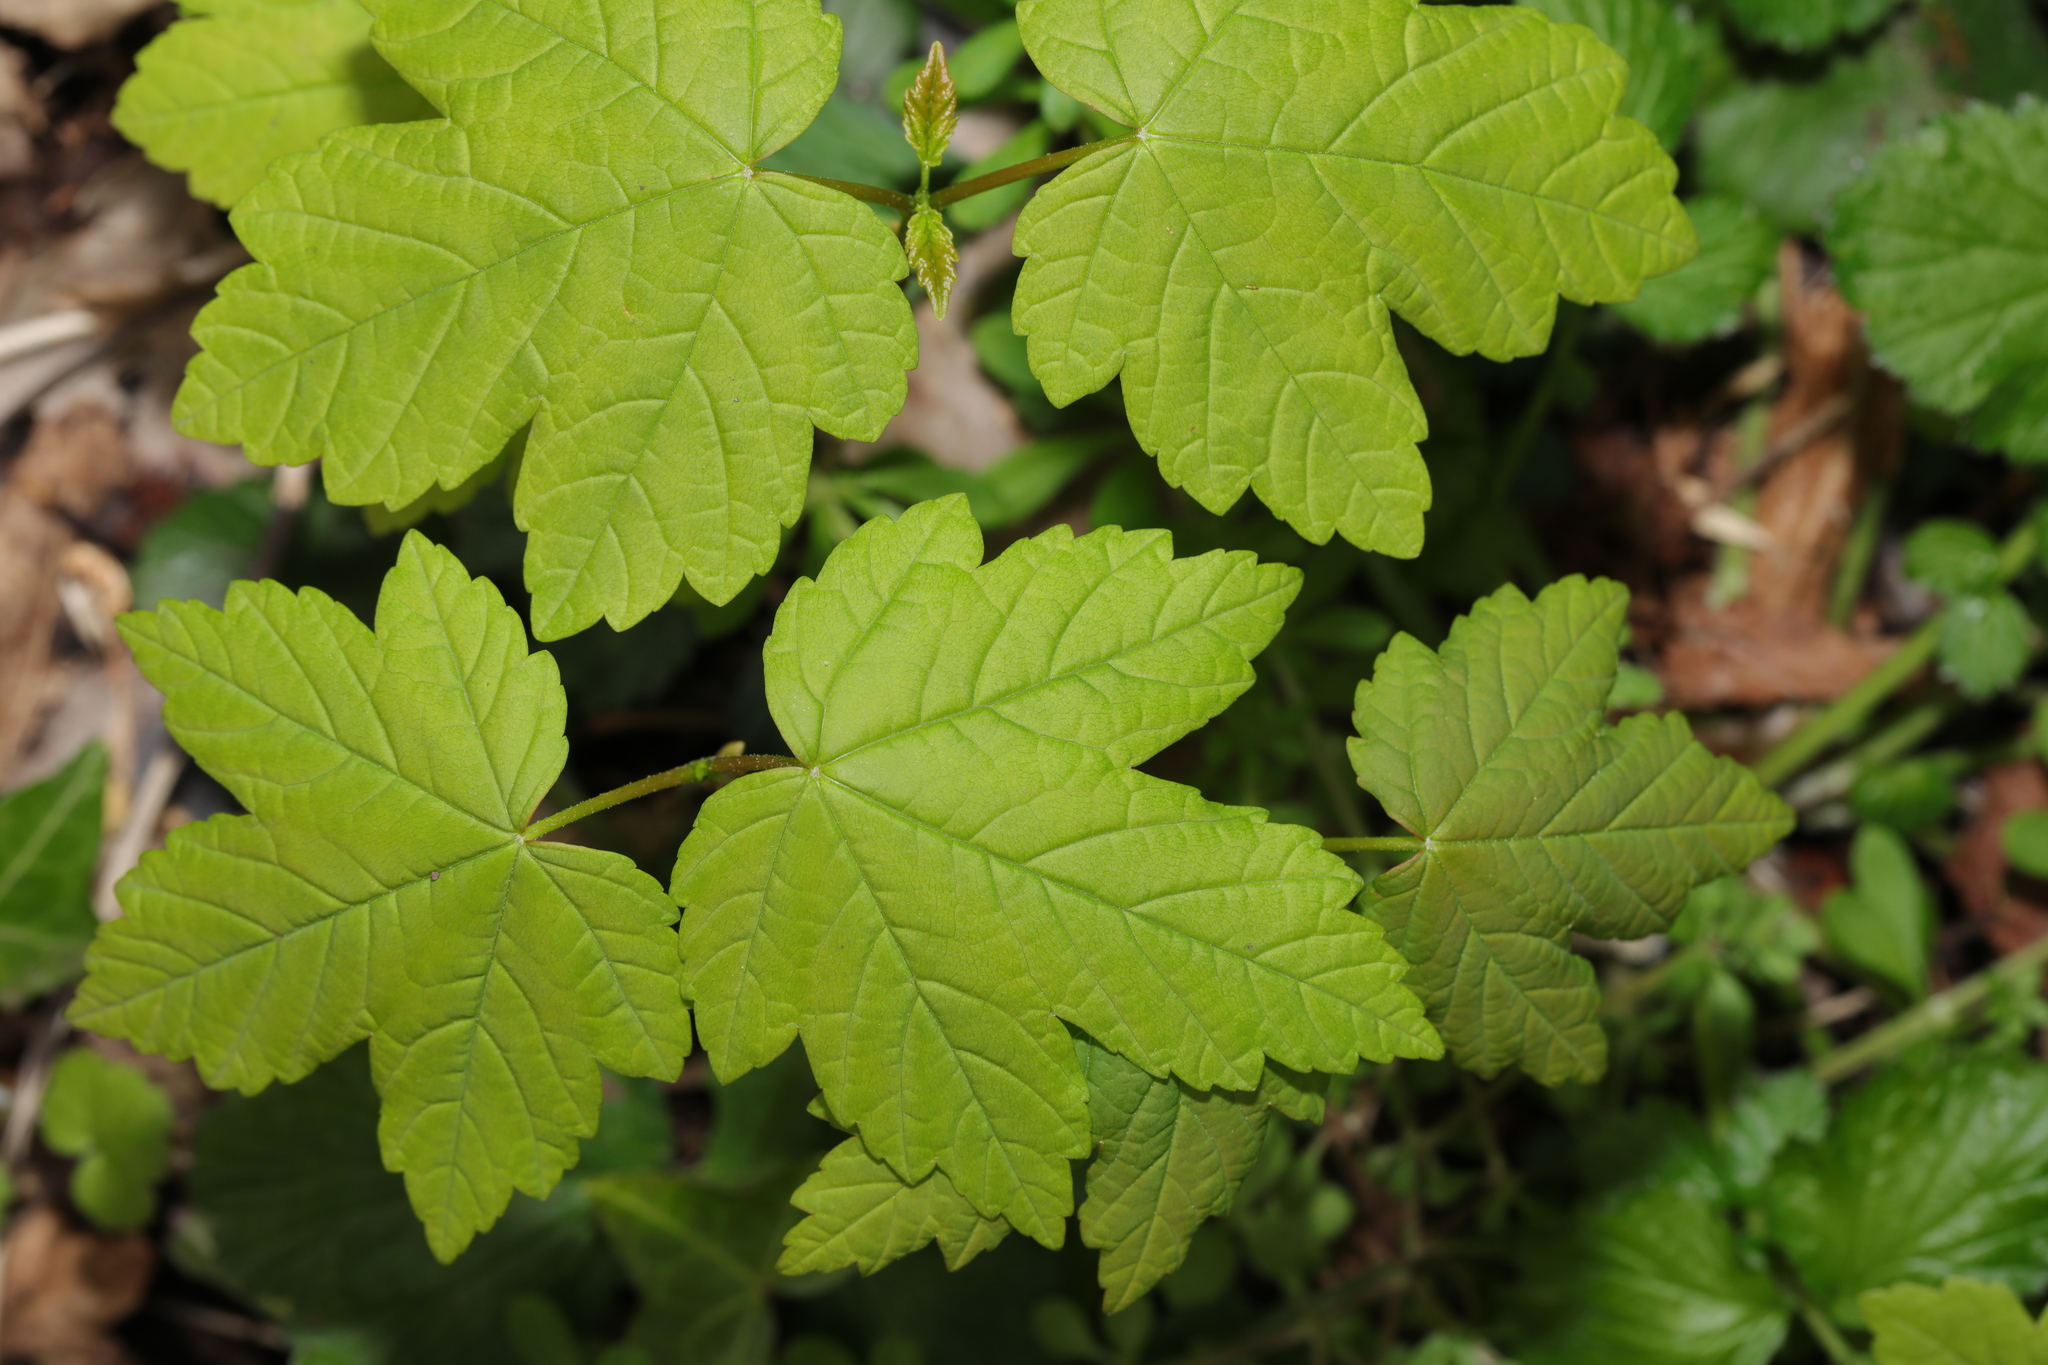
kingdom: Plantae
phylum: Tracheophyta
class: Magnoliopsida
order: Sapindales
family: Sapindaceae
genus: Acer
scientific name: Acer pseudoplatanus
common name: Sycamore
